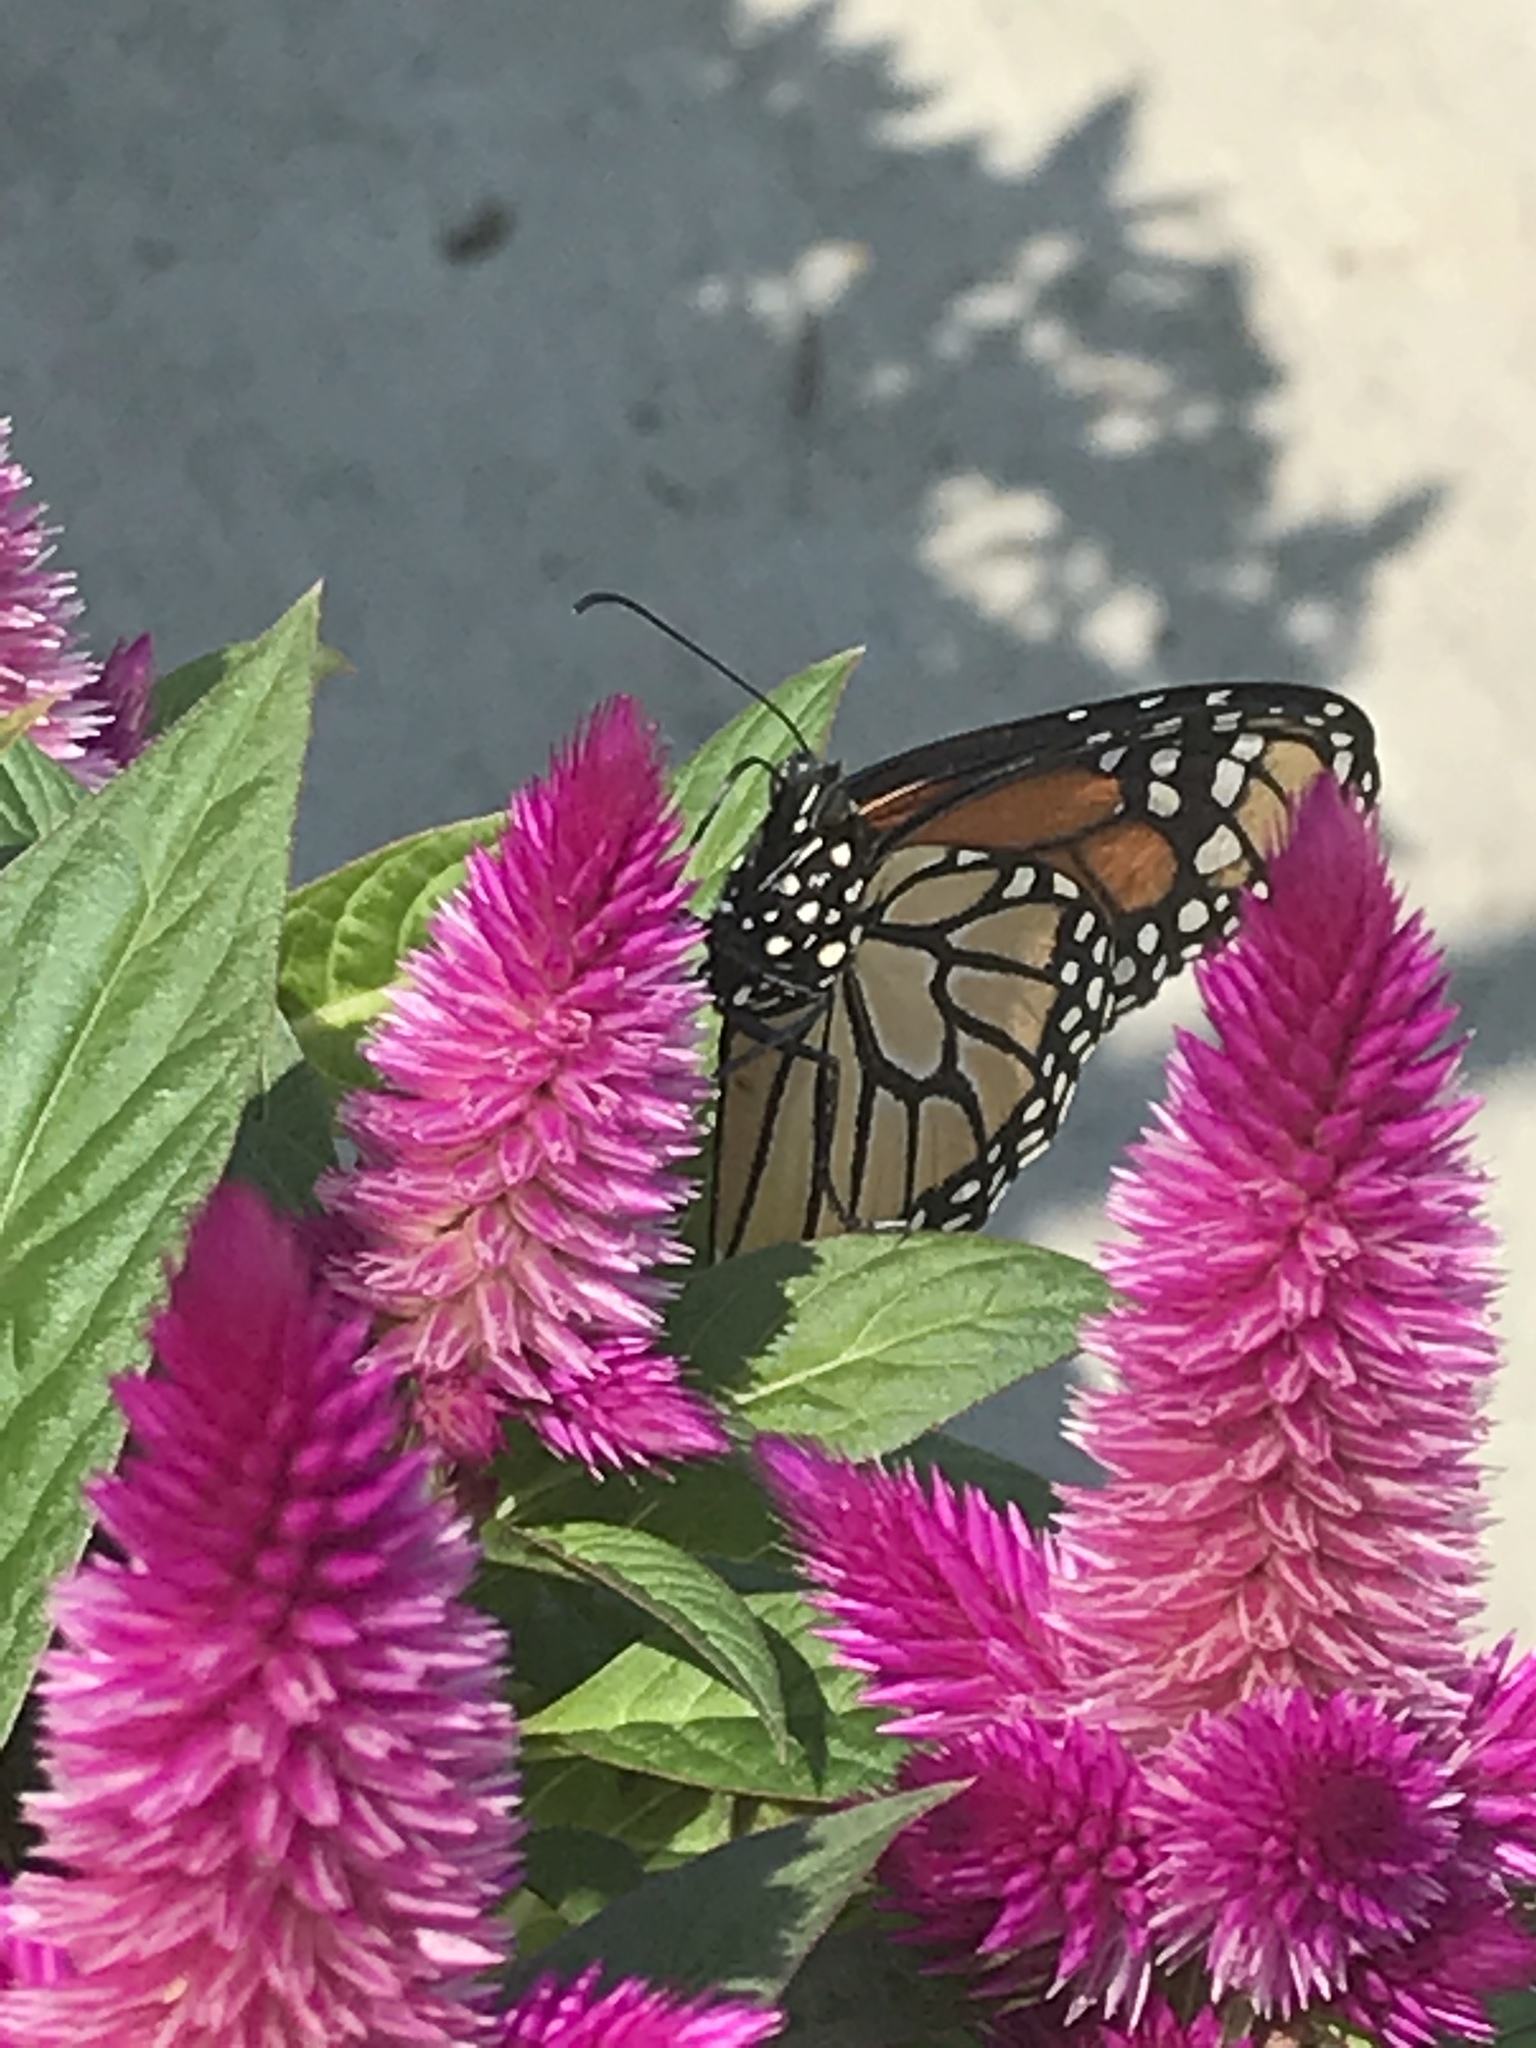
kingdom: Animalia
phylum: Arthropoda
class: Insecta
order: Lepidoptera
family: Nymphalidae
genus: Danaus
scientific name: Danaus plexippus
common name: Monarch
